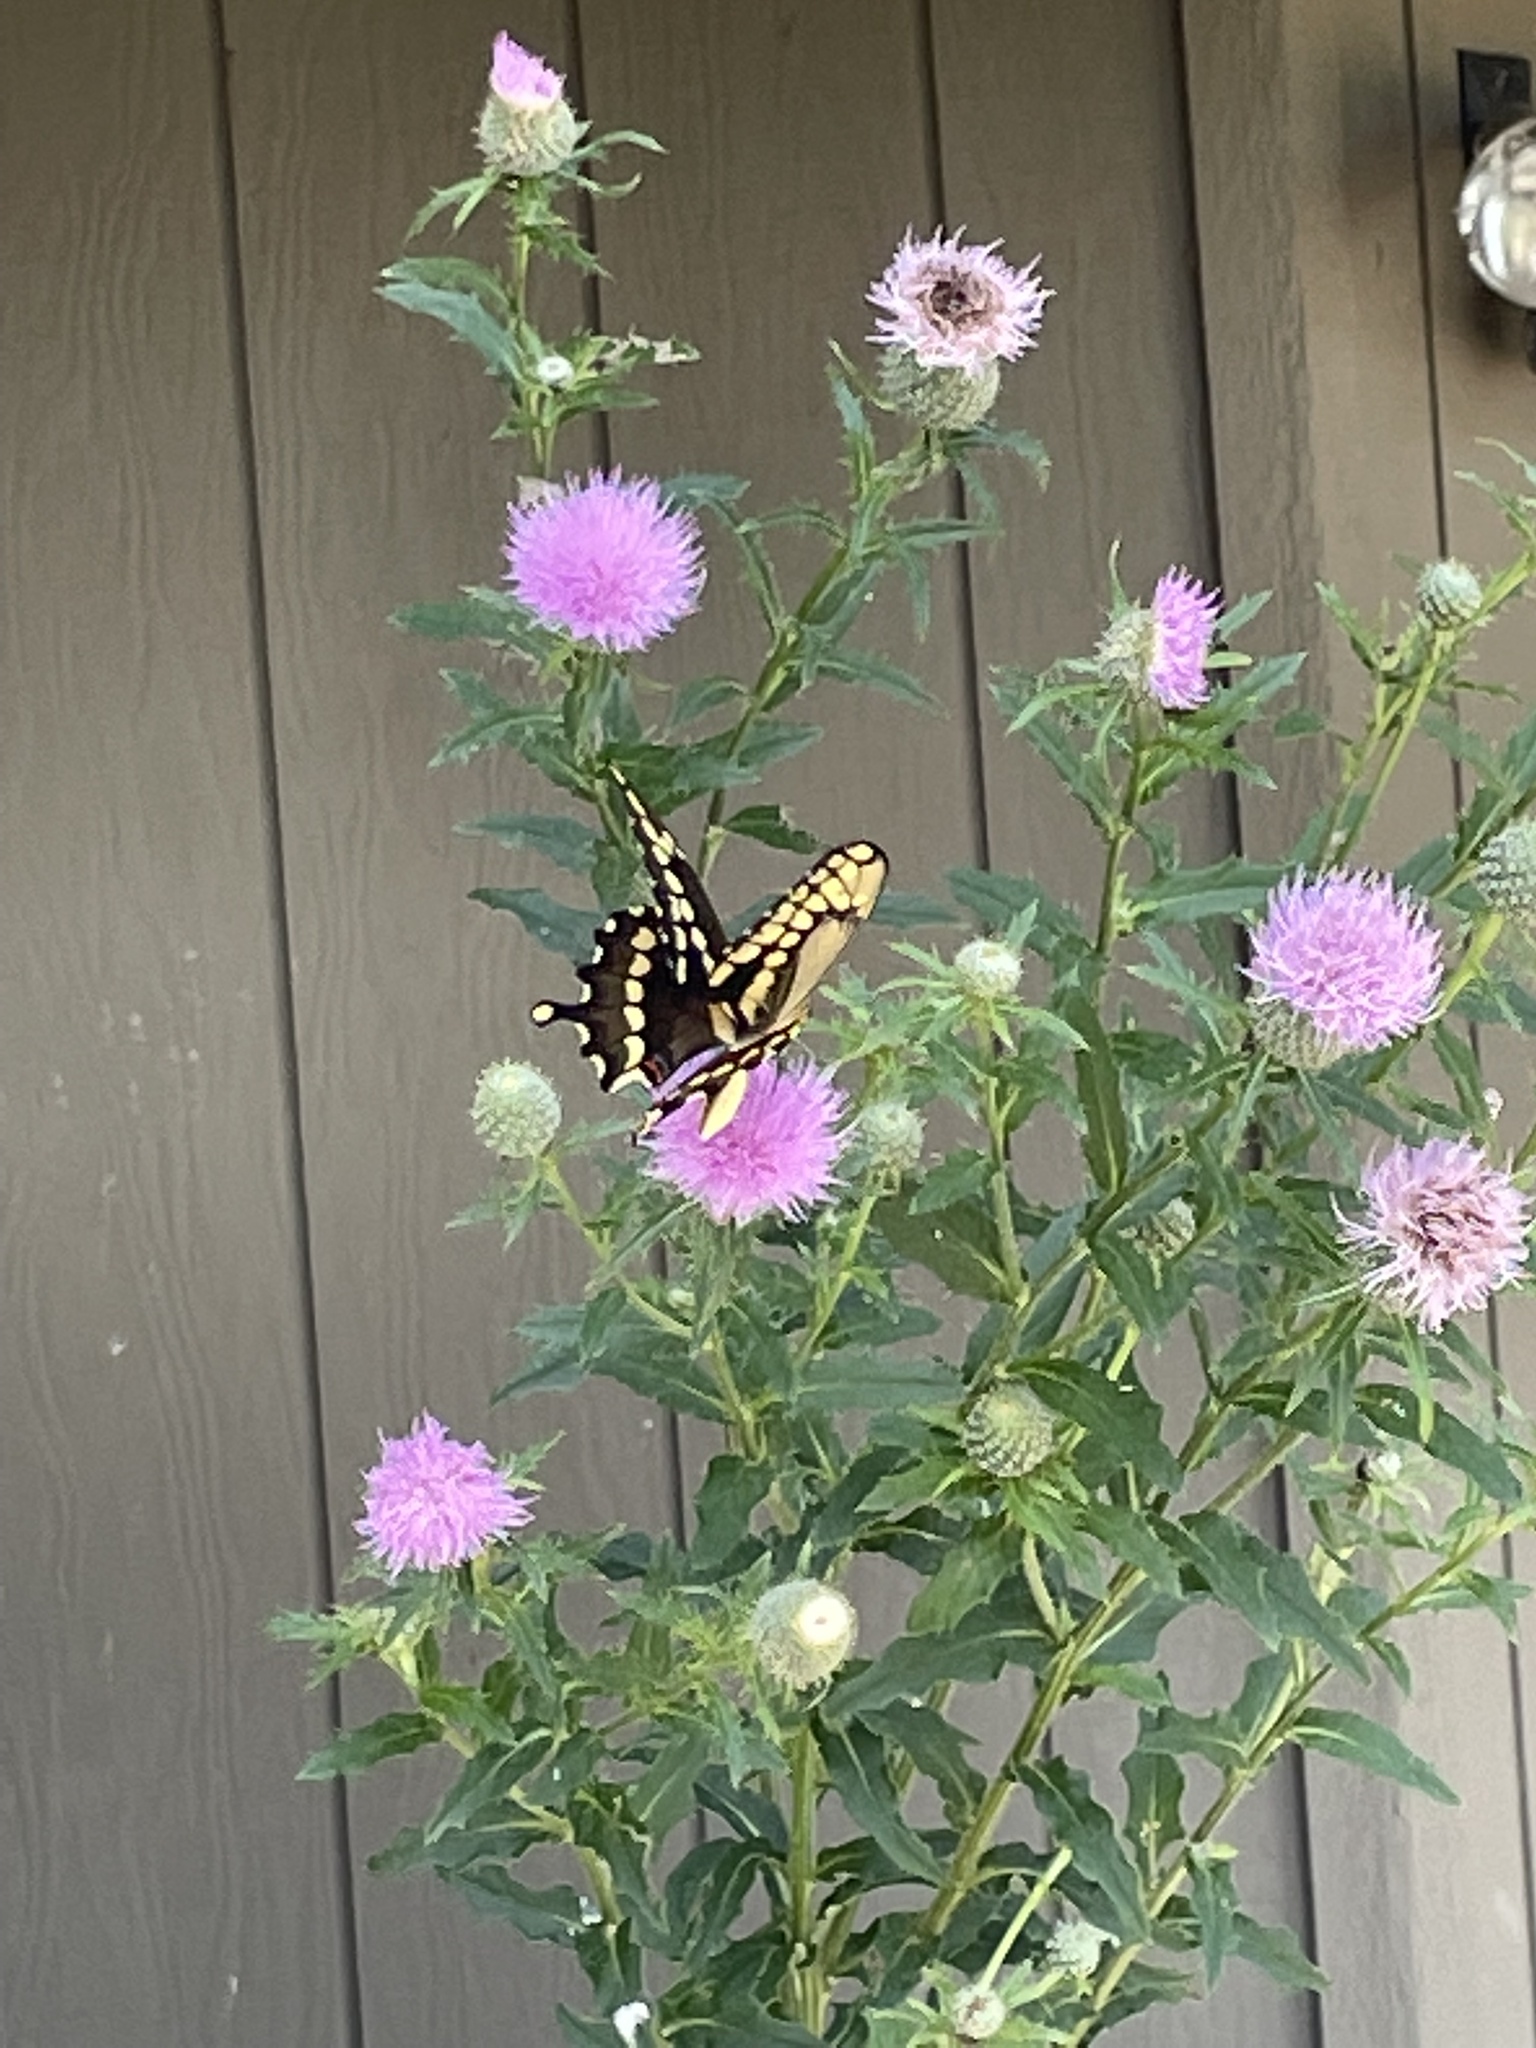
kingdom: Animalia
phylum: Arthropoda
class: Insecta
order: Lepidoptera
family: Papilionidae
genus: Papilio
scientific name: Papilio cresphontes
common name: Giant swallowtail
